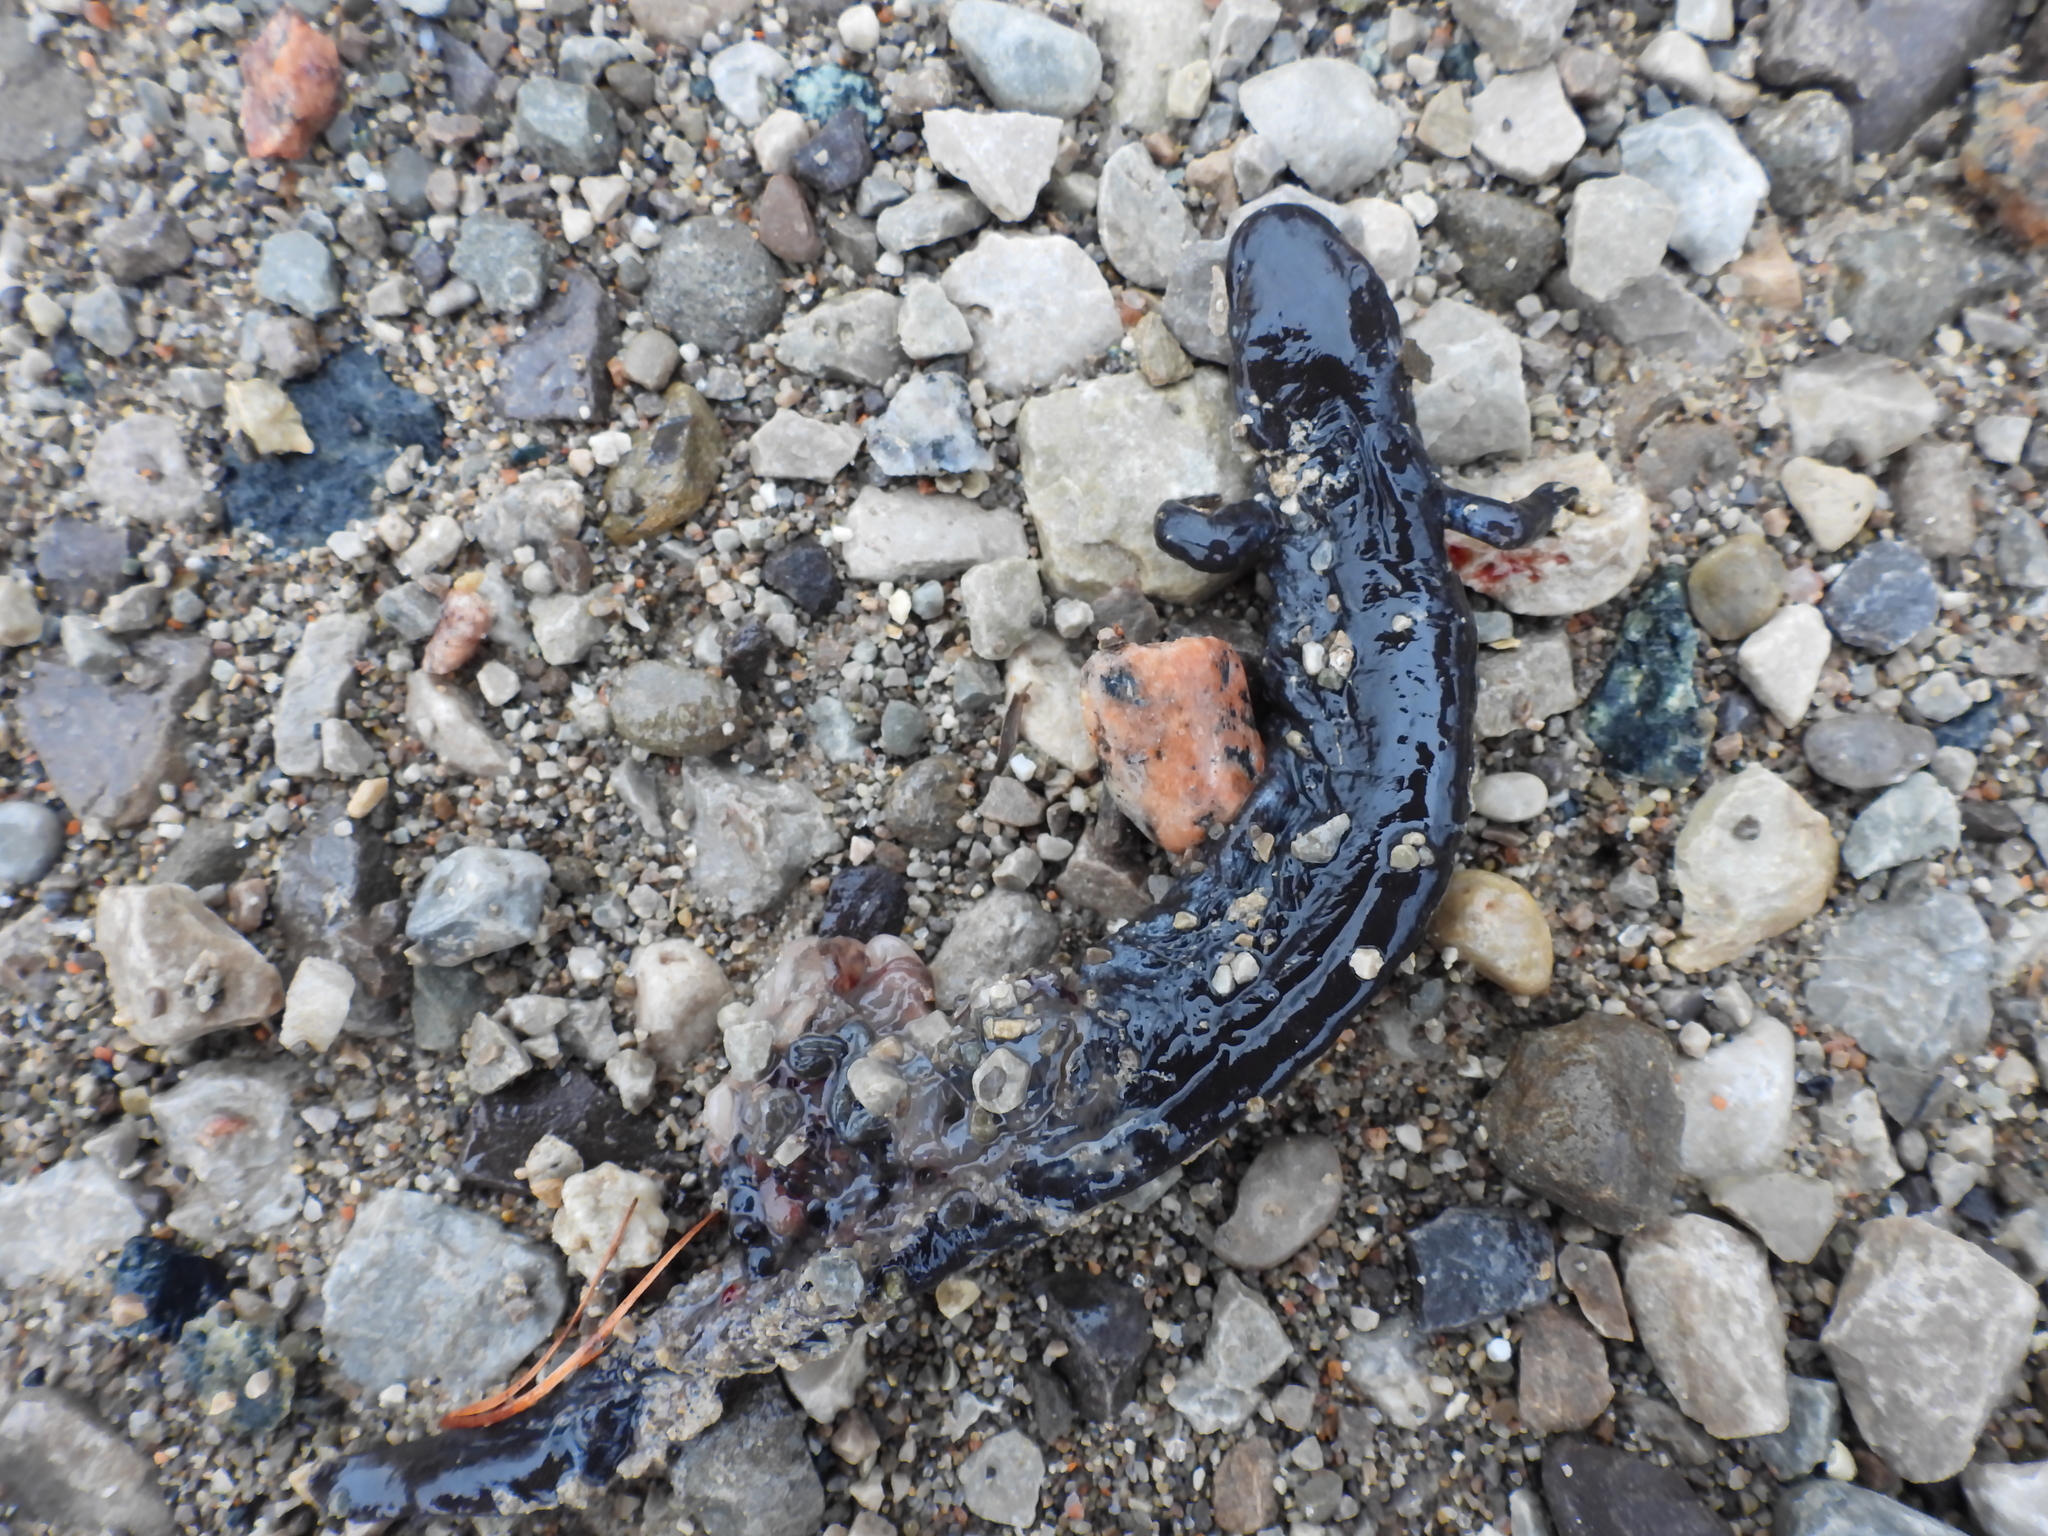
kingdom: Animalia
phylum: Chordata
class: Amphibia
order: Caudata
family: Ambystomatidae
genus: Ambystoma
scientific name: Ambystoma unisexual
